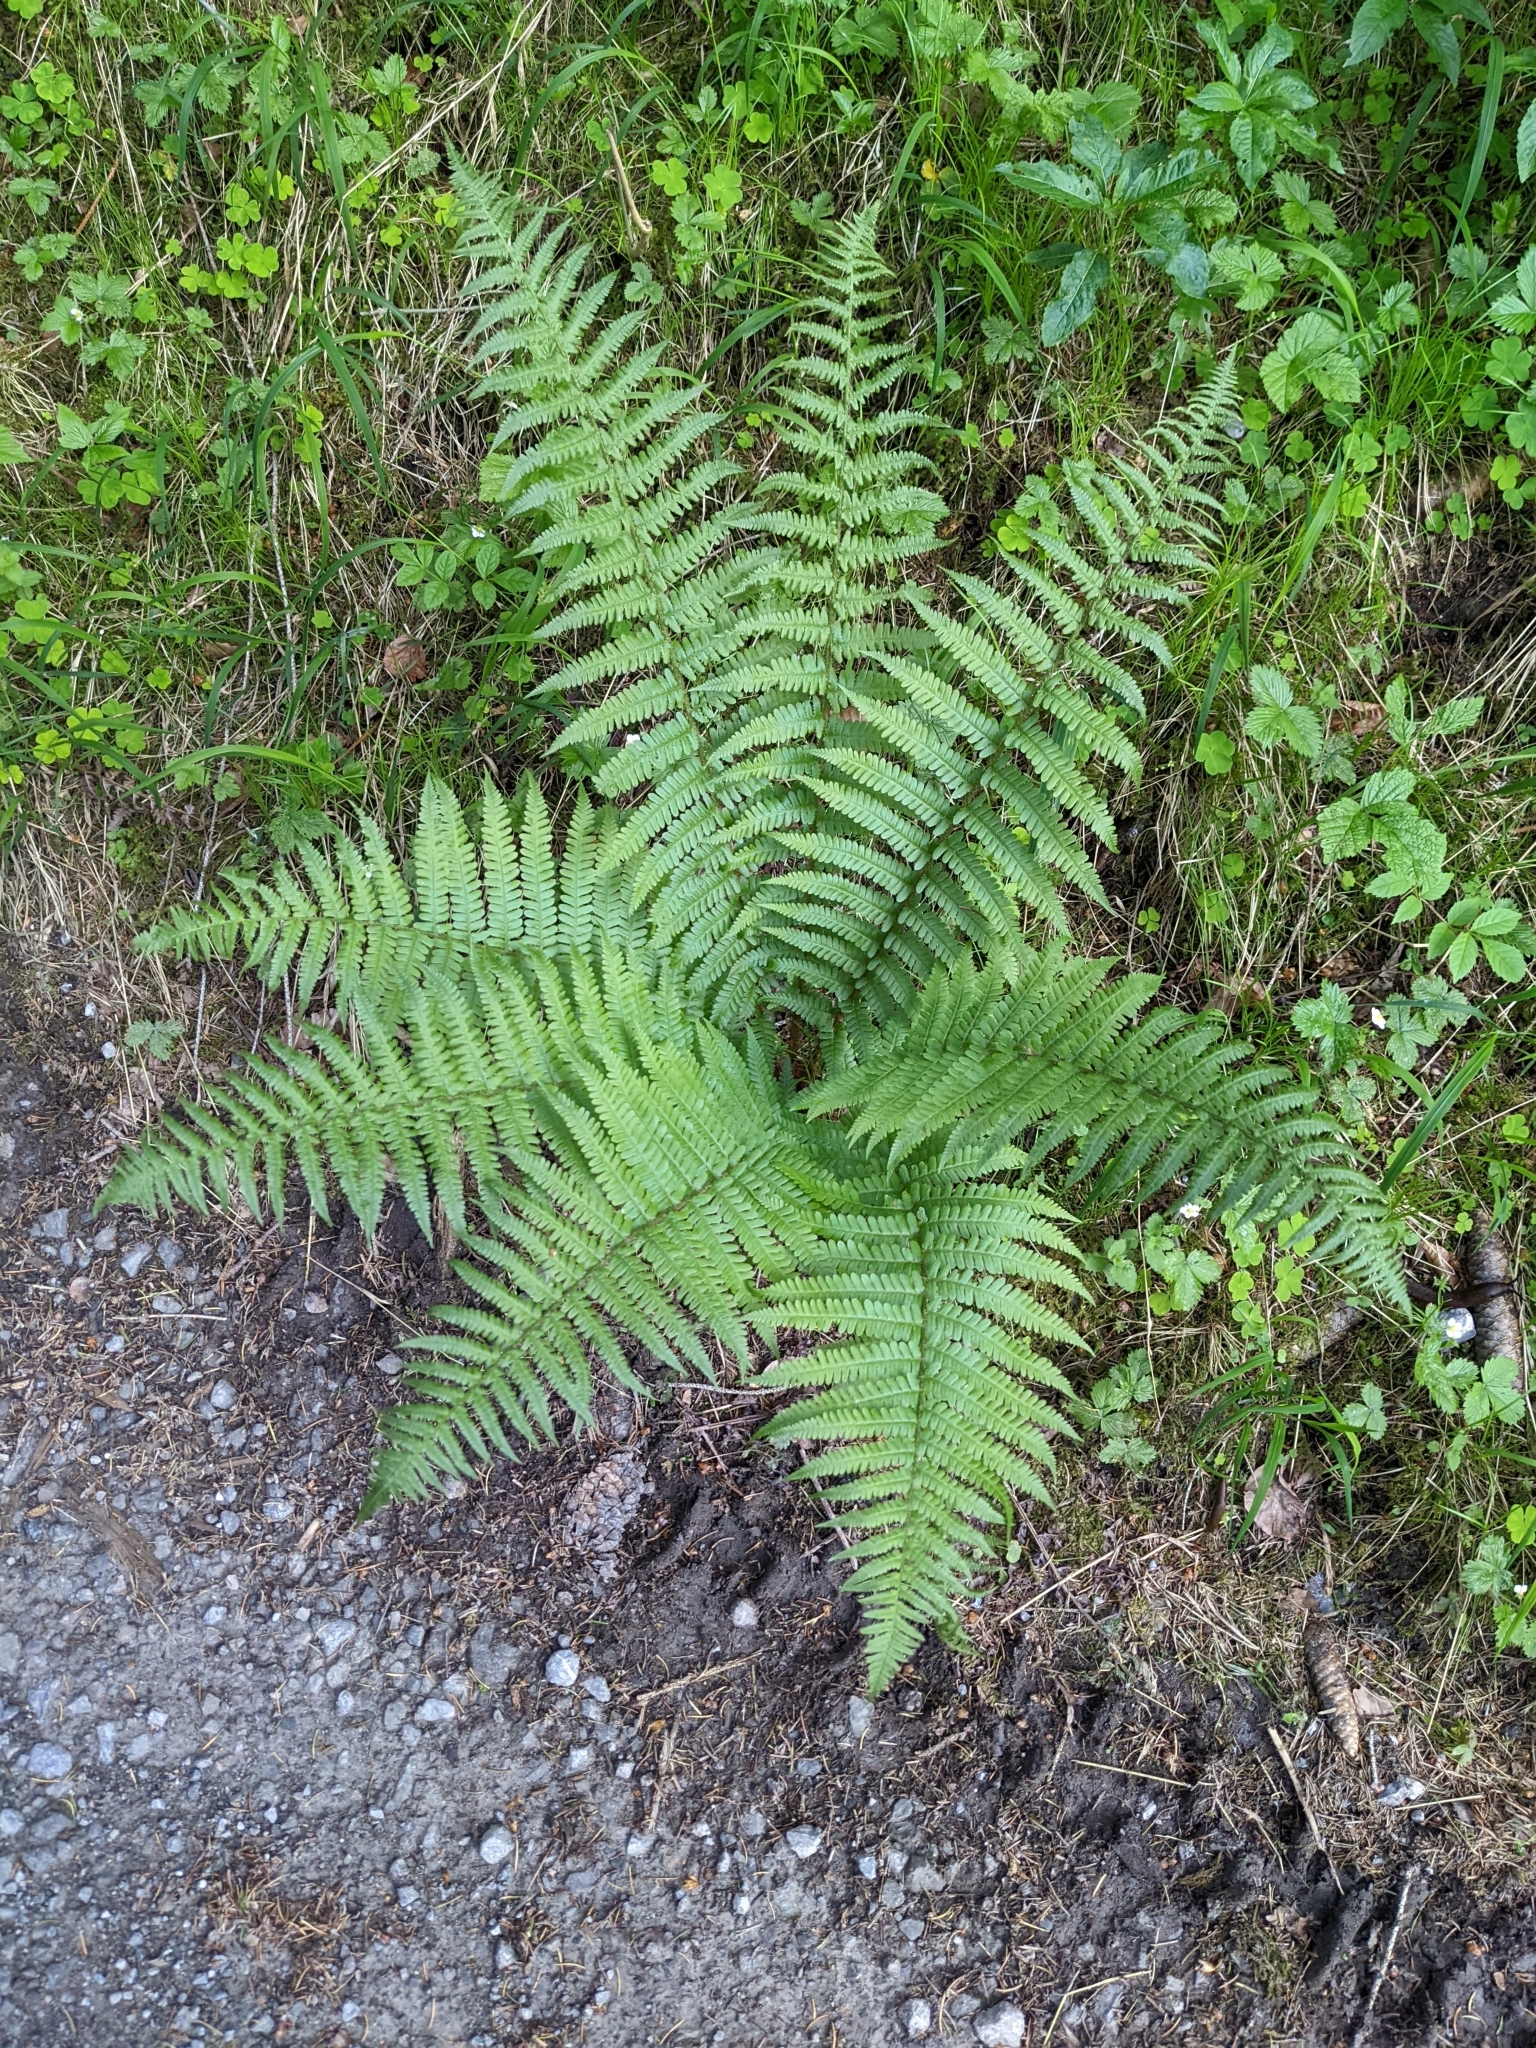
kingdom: Plantae
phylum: Tracheophyta
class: Polypodiopsida
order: Polypodiales
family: Dryopteridaceae
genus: Dryopteris
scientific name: Dryopteris filix-mas
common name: Male fern
